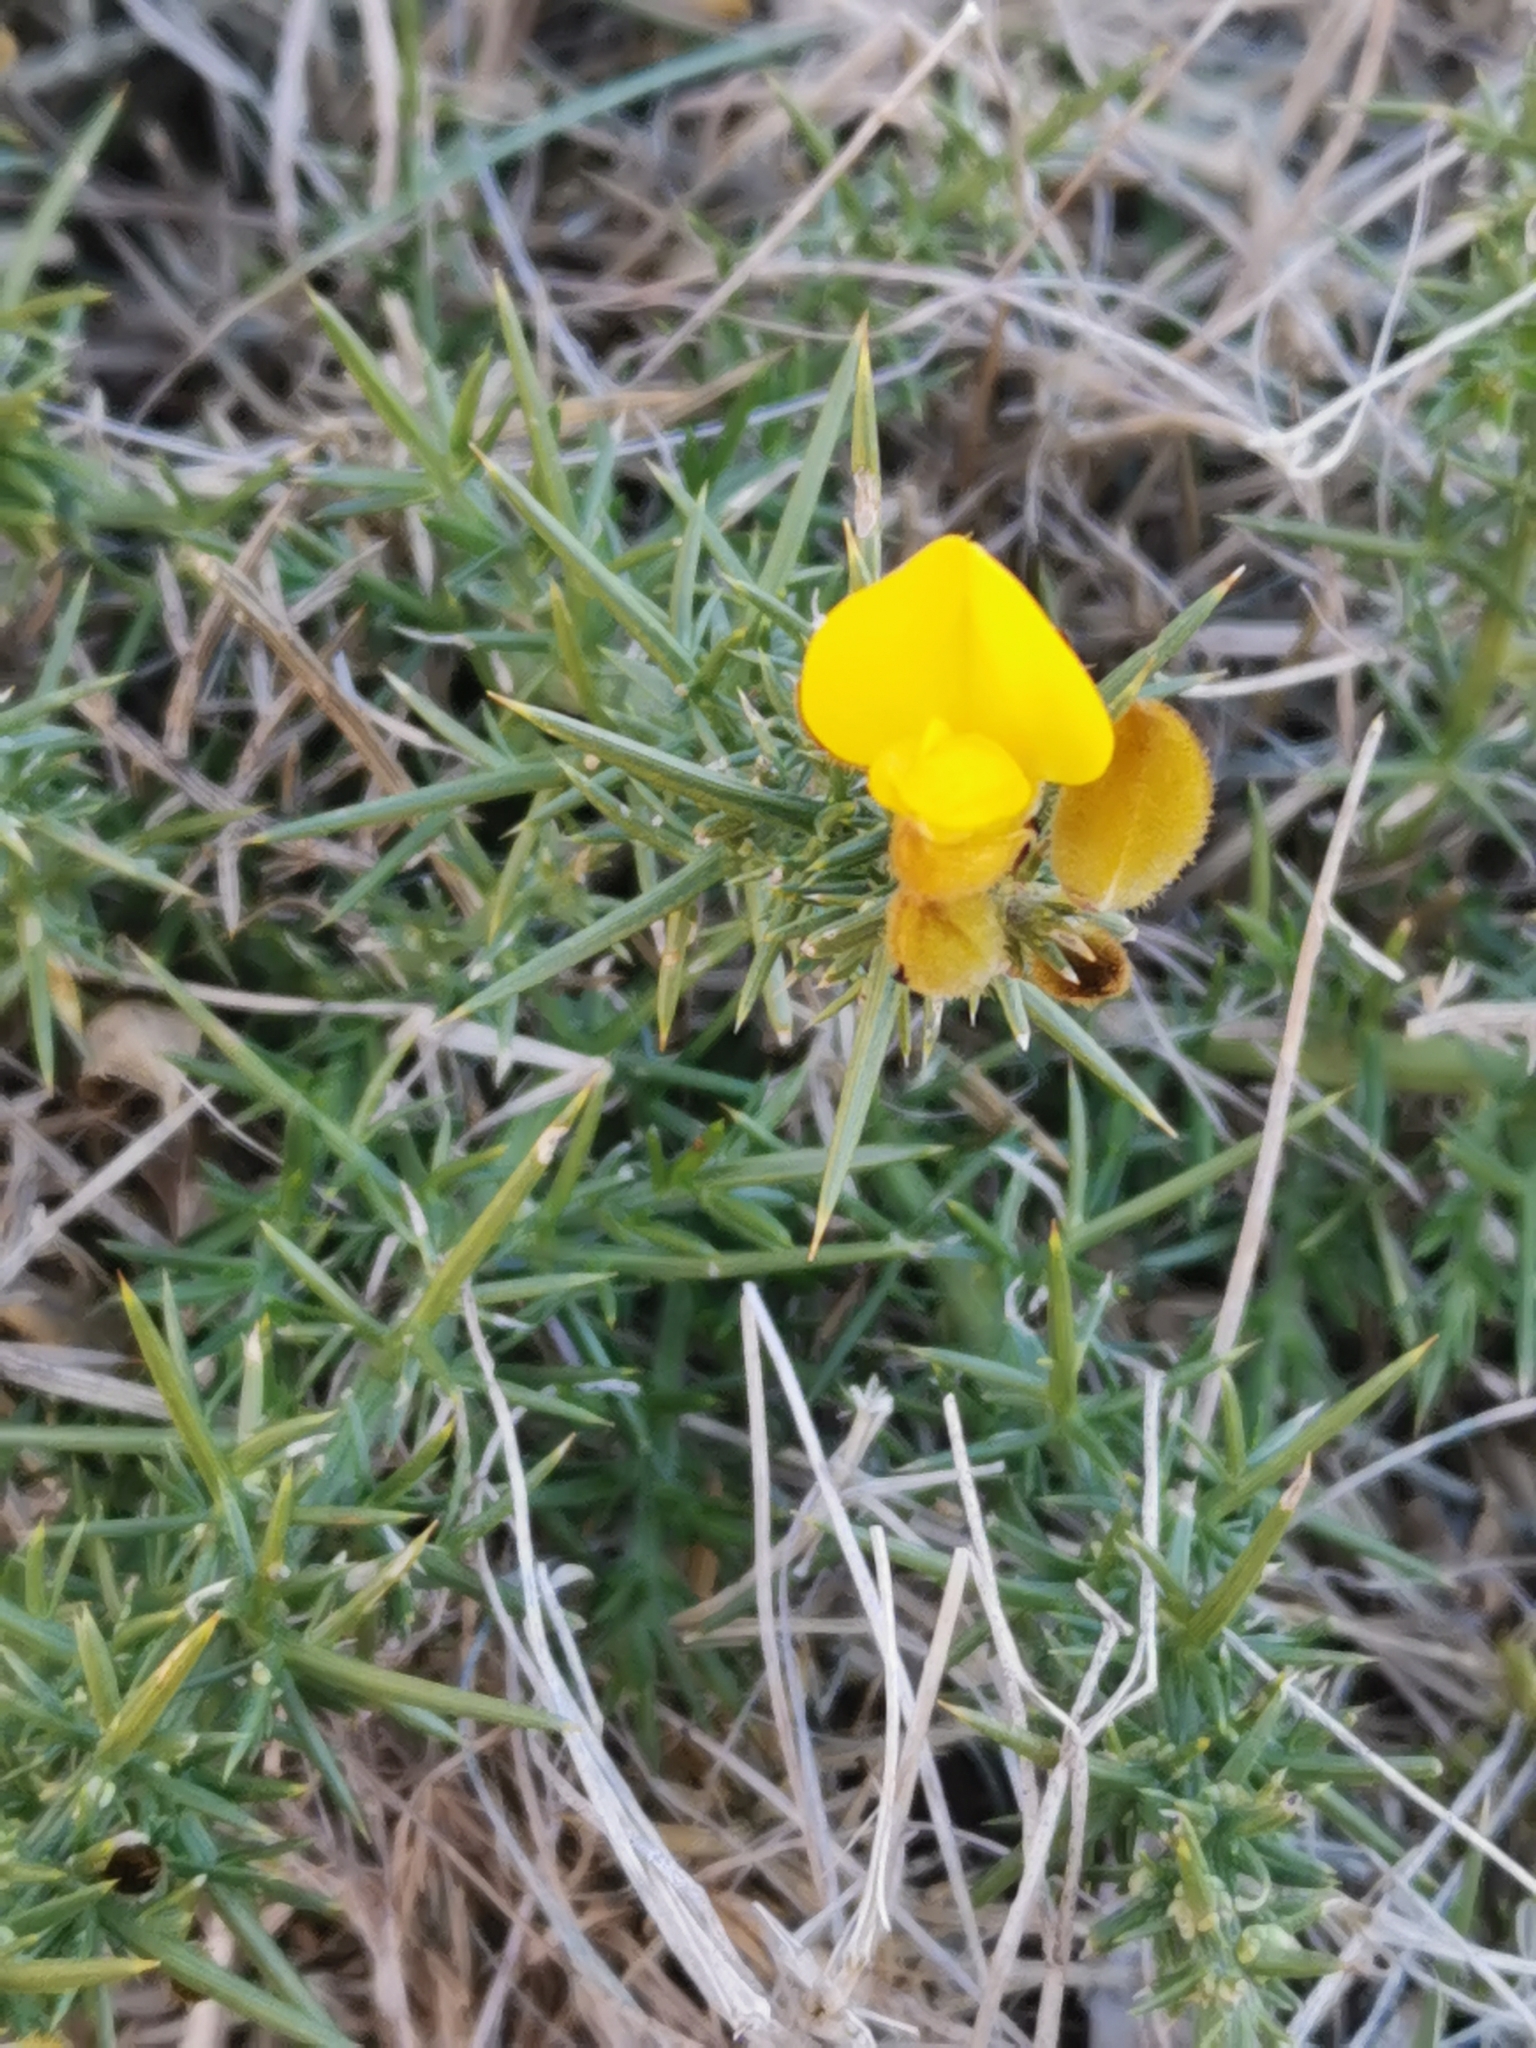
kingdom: Plantae
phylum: Tracheophyta
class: Magnoliopsida
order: Fabales
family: Fabaceae
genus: Ulex
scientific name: Ulex europaeus
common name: Common gorse
